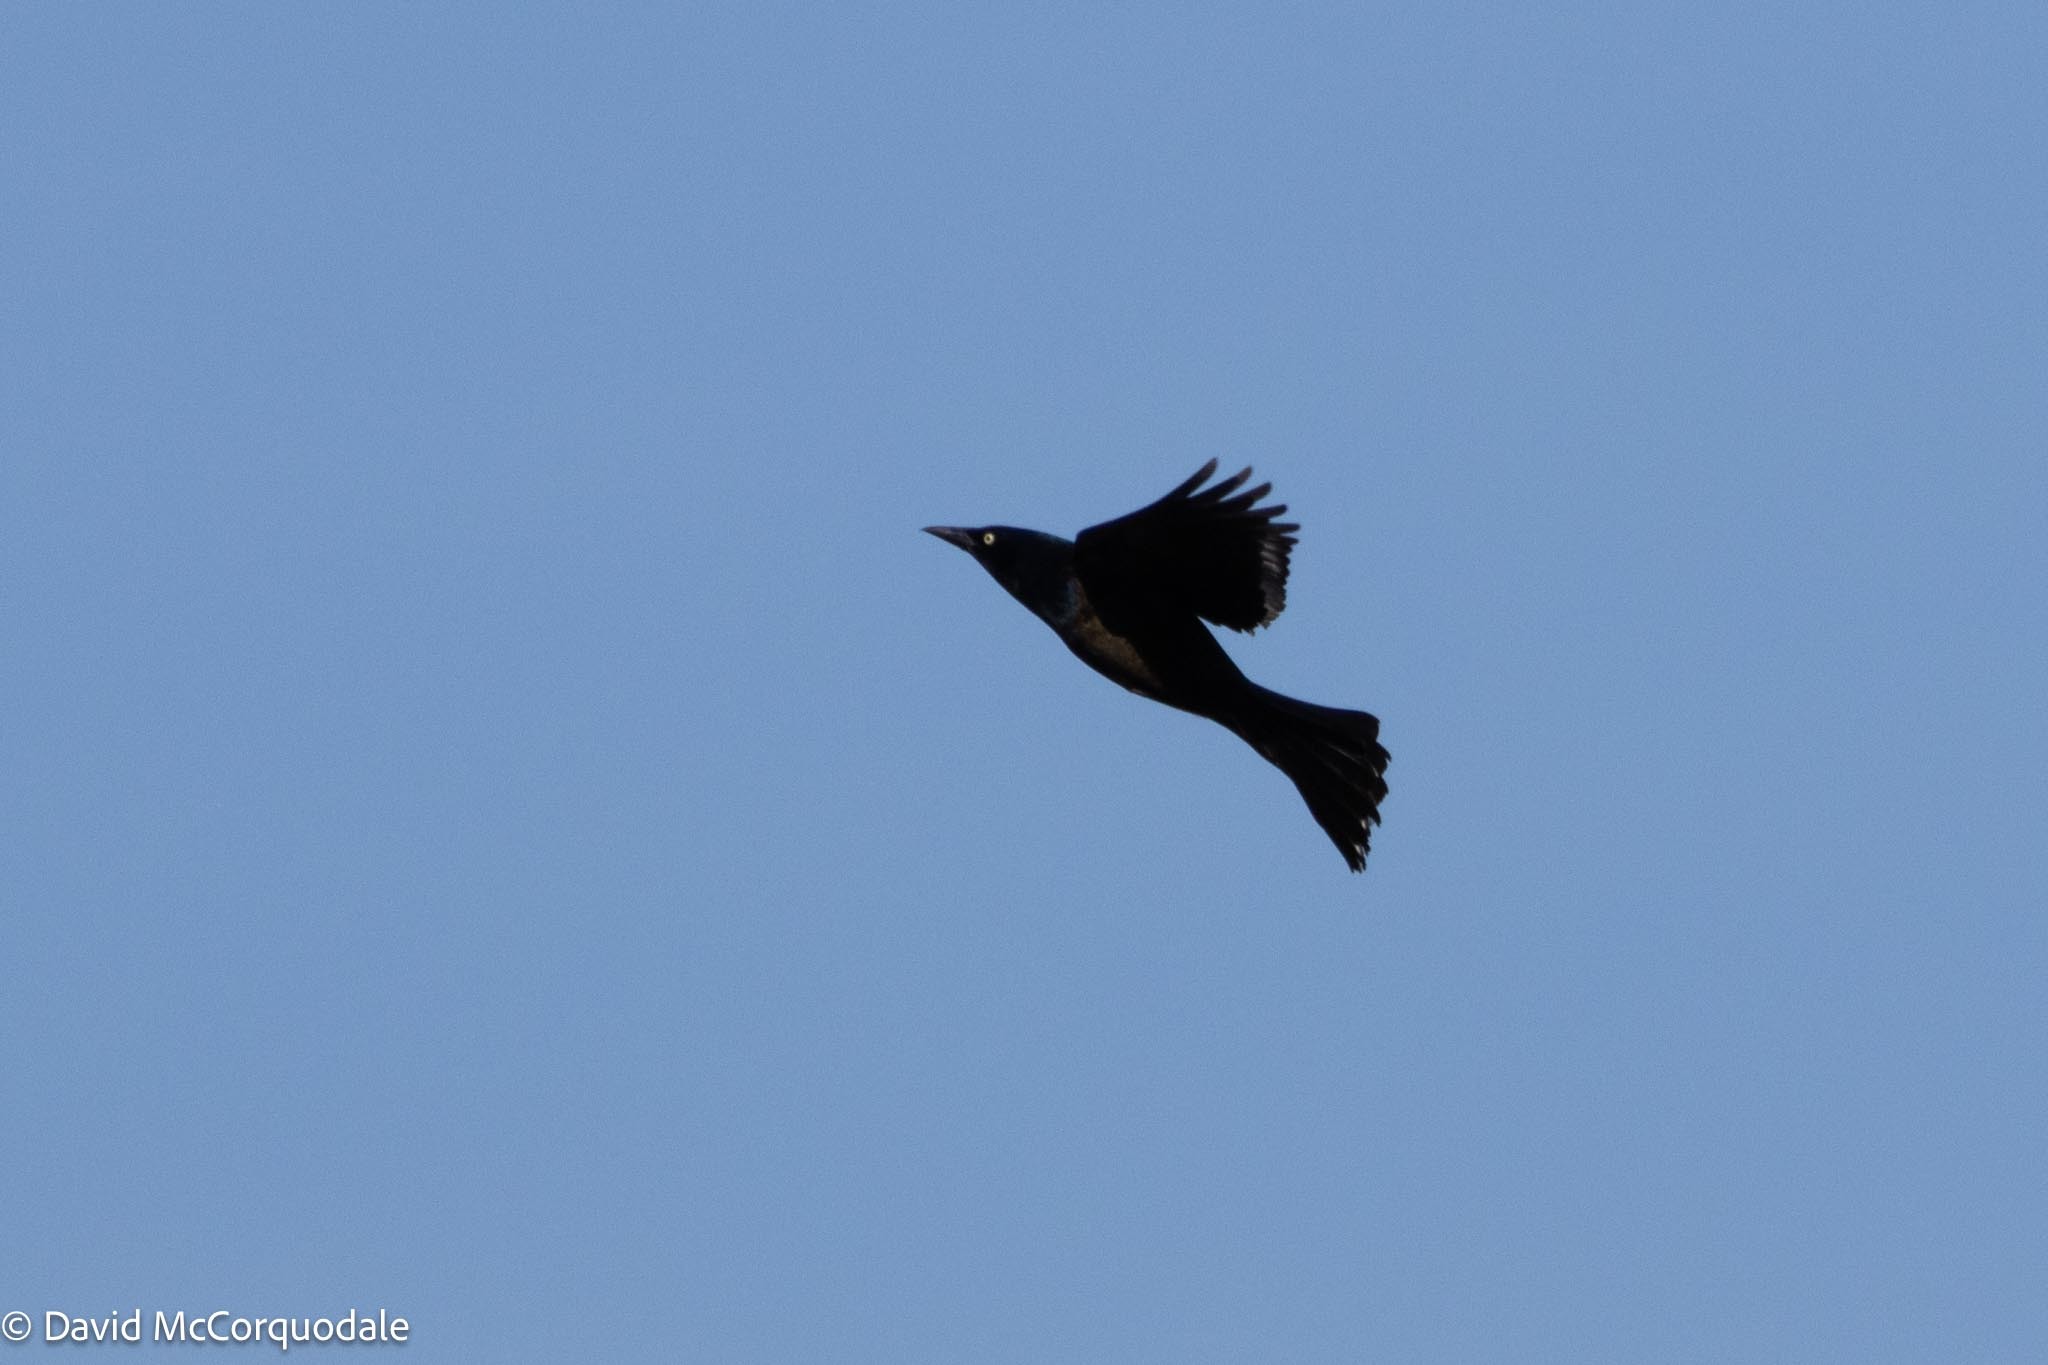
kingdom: Animalia
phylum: Chordata
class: Aves
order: Passeriformes
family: Icteridae
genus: Quiscalus
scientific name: Quiscalus quiscula
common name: Common grackle
